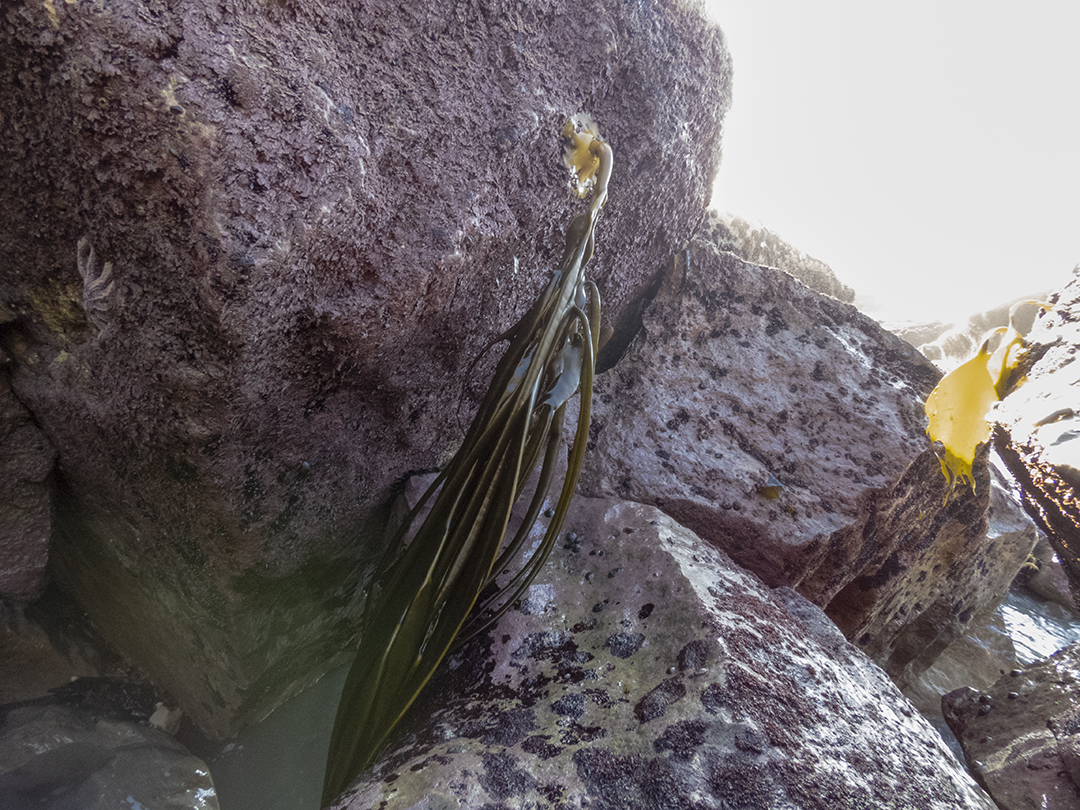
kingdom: Chromista
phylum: Ochrophyta
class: Phaeophyceae
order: Fucales
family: Durvillaeaceae
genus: Durvillaea
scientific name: Durvillaea antarctica
